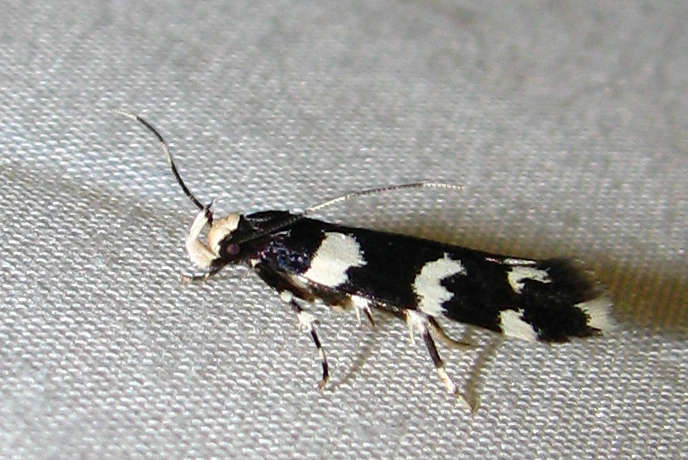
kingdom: Animalia
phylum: Arthropoda
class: Insecta
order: Lepidoptera
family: Cosmopterigidae
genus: Limnaecia
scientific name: Limnaecia scoliosema
